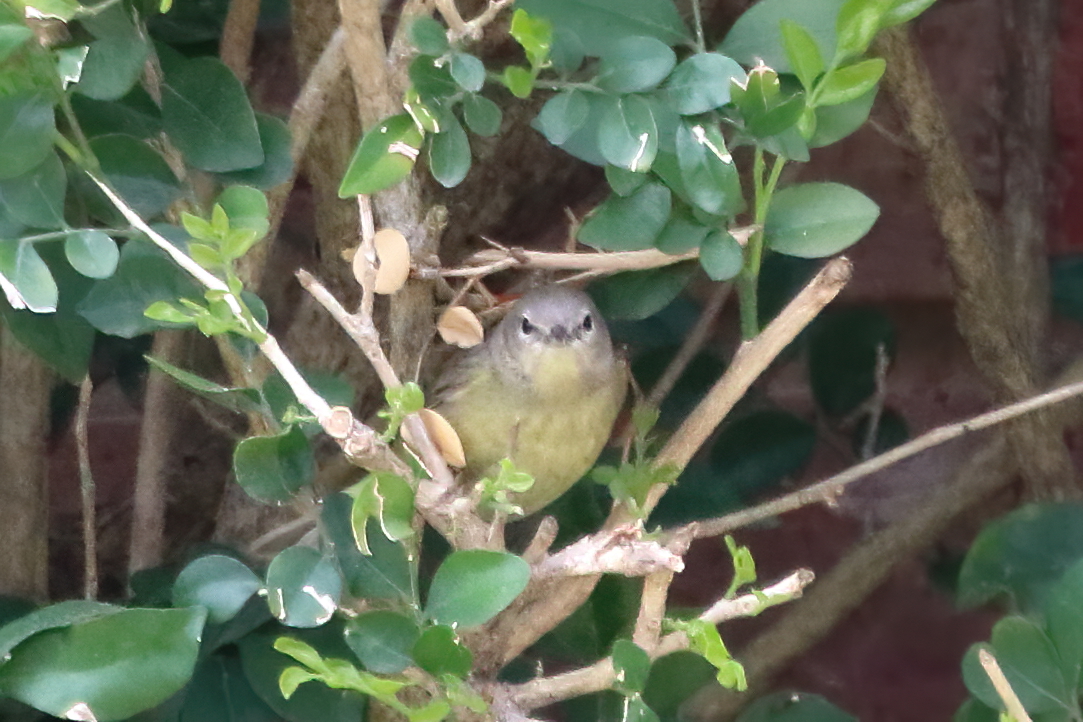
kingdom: Animalia
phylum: Chordata
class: Aves
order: Passeriformes
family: Parulidae
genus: Leiothlypis
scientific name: Leiothlypis celata
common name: Orange-crowned warbler
